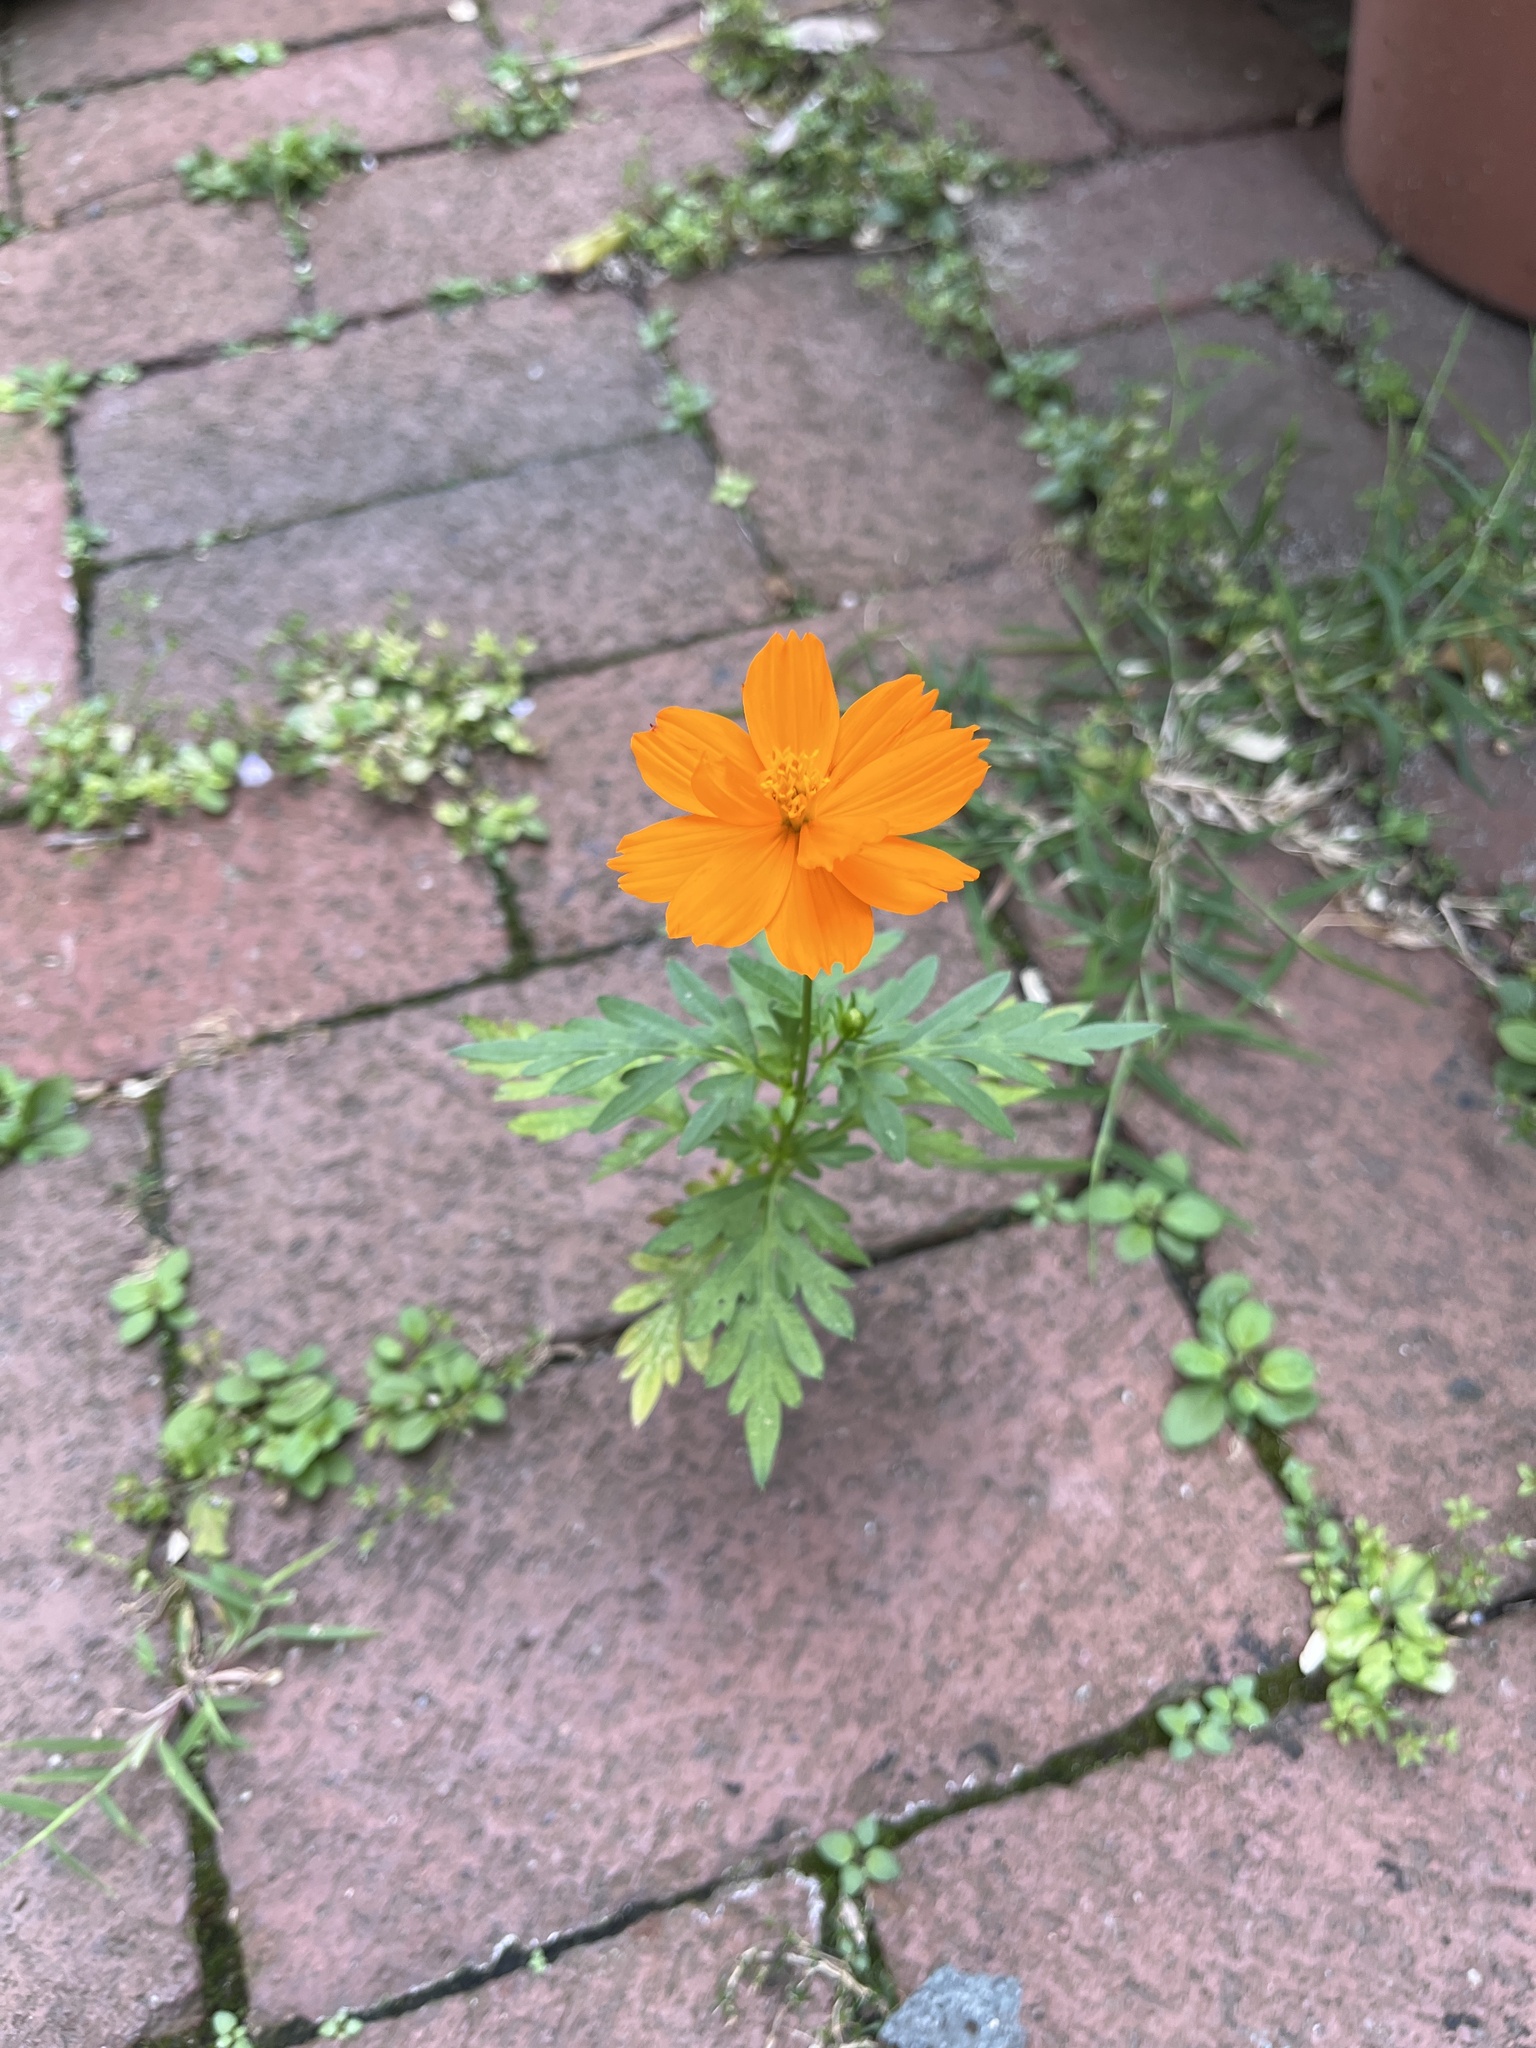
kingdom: Plantae
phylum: Tracheophyta
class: Magnoliopsida
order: Asterales
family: Asteraceae
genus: Cosmos
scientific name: Cosmos sulphureus
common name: Sulphur cosmos
